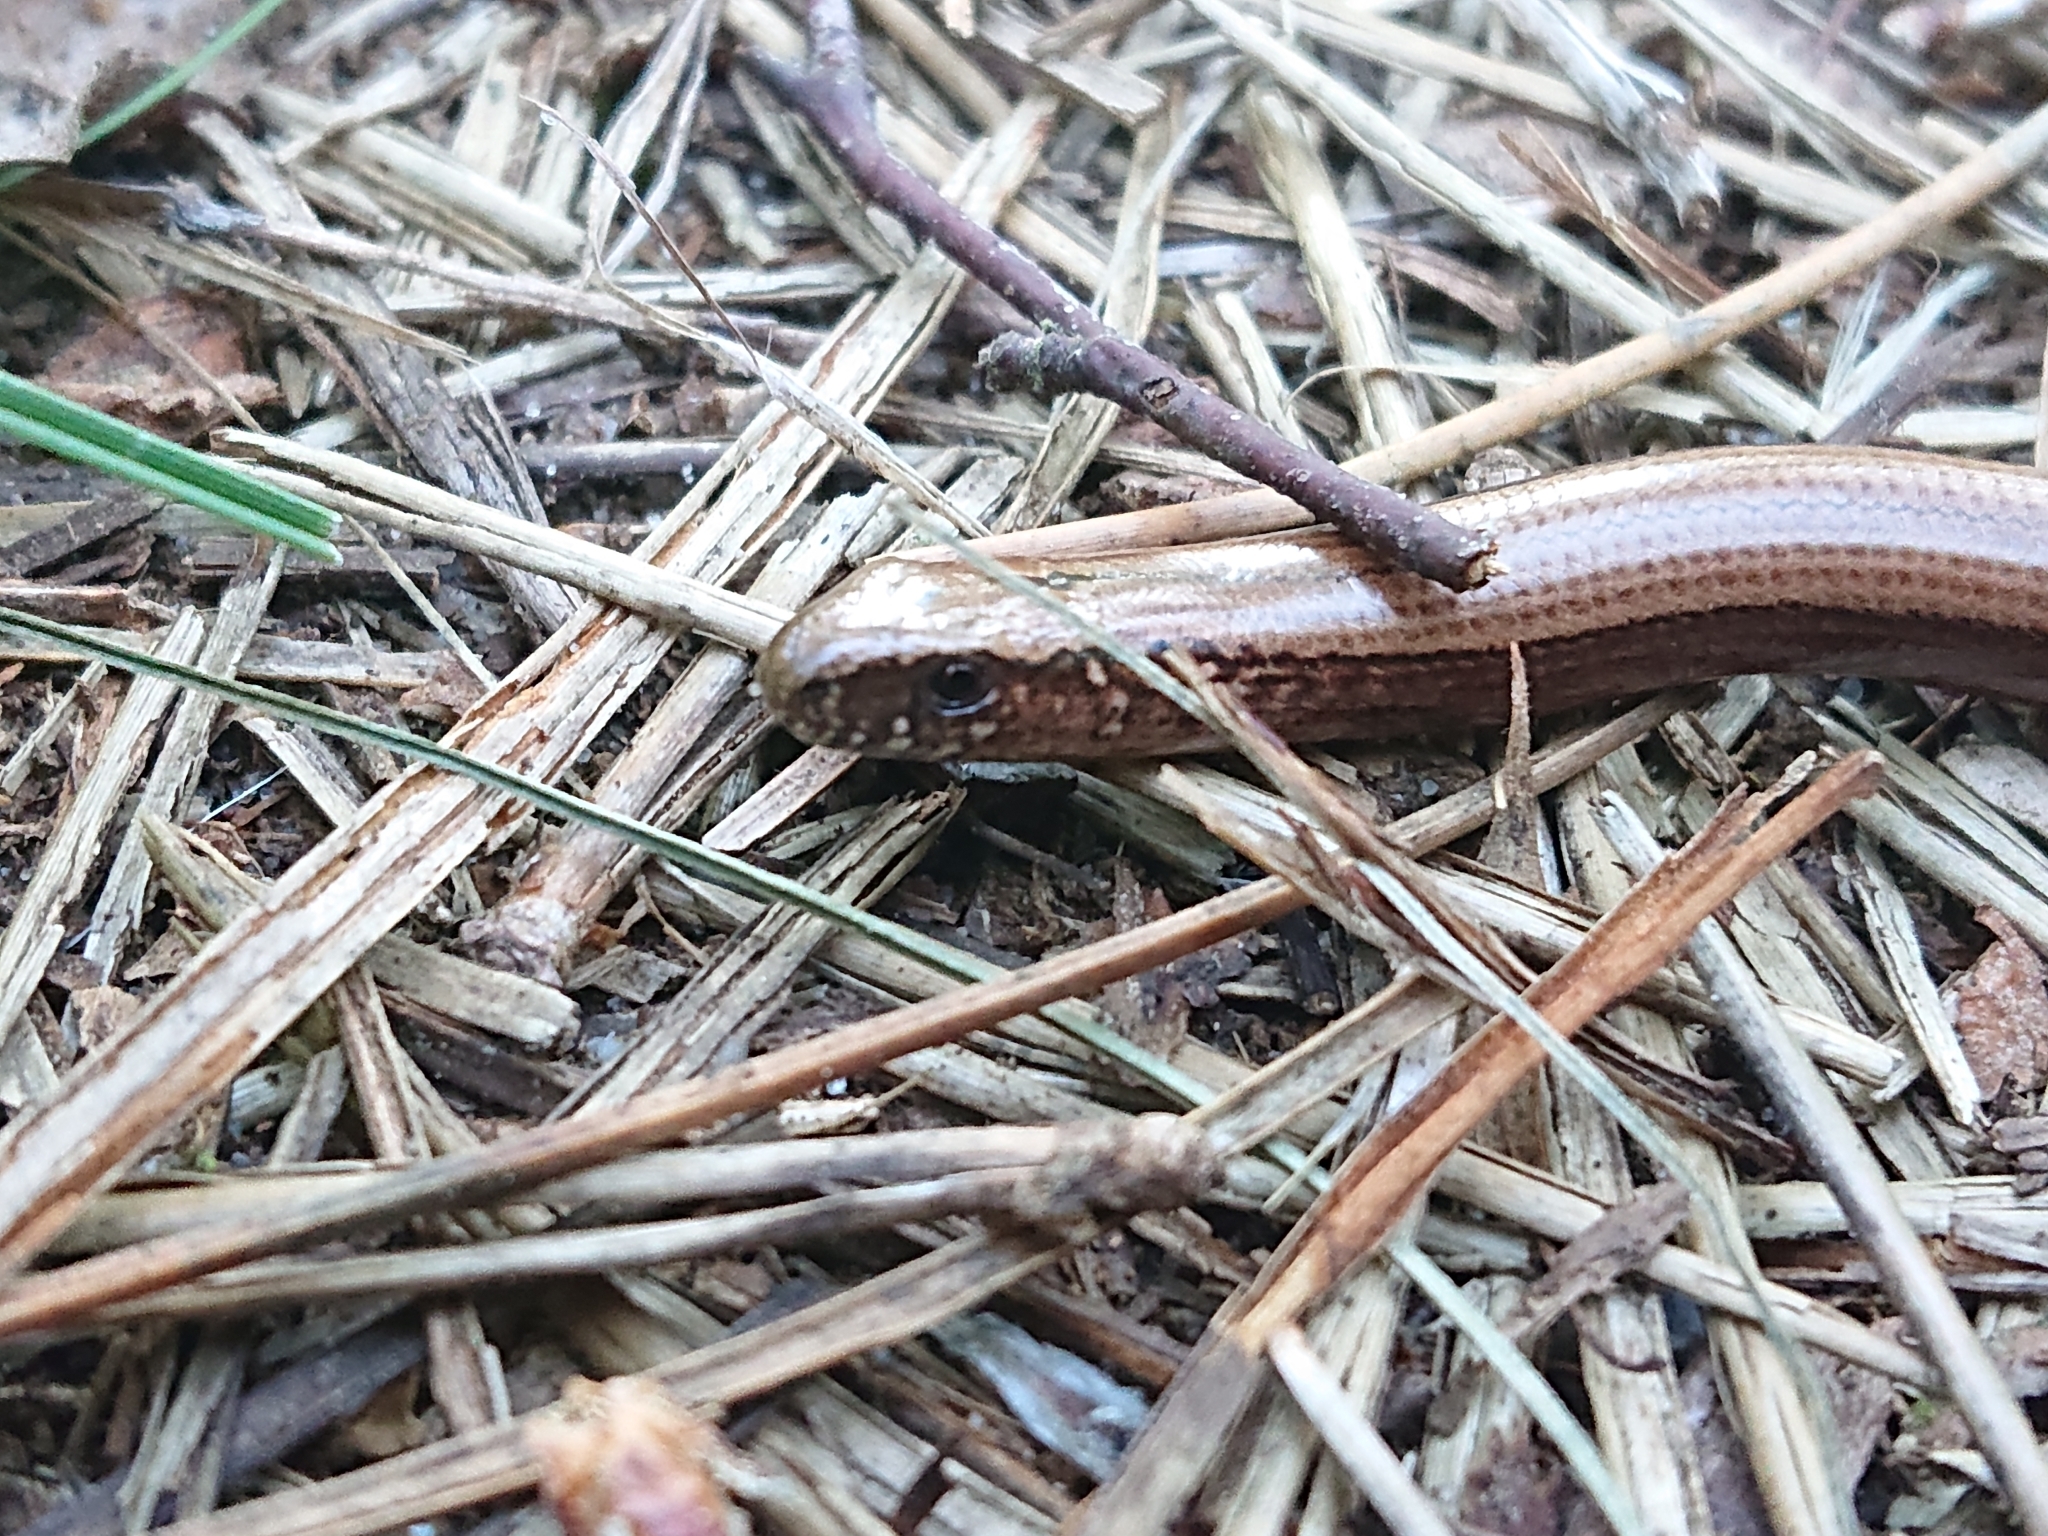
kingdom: Animalia
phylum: Chordata
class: Squamata
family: Anguidae
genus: Anguis
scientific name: Anguis fragilis
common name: Slow worm
